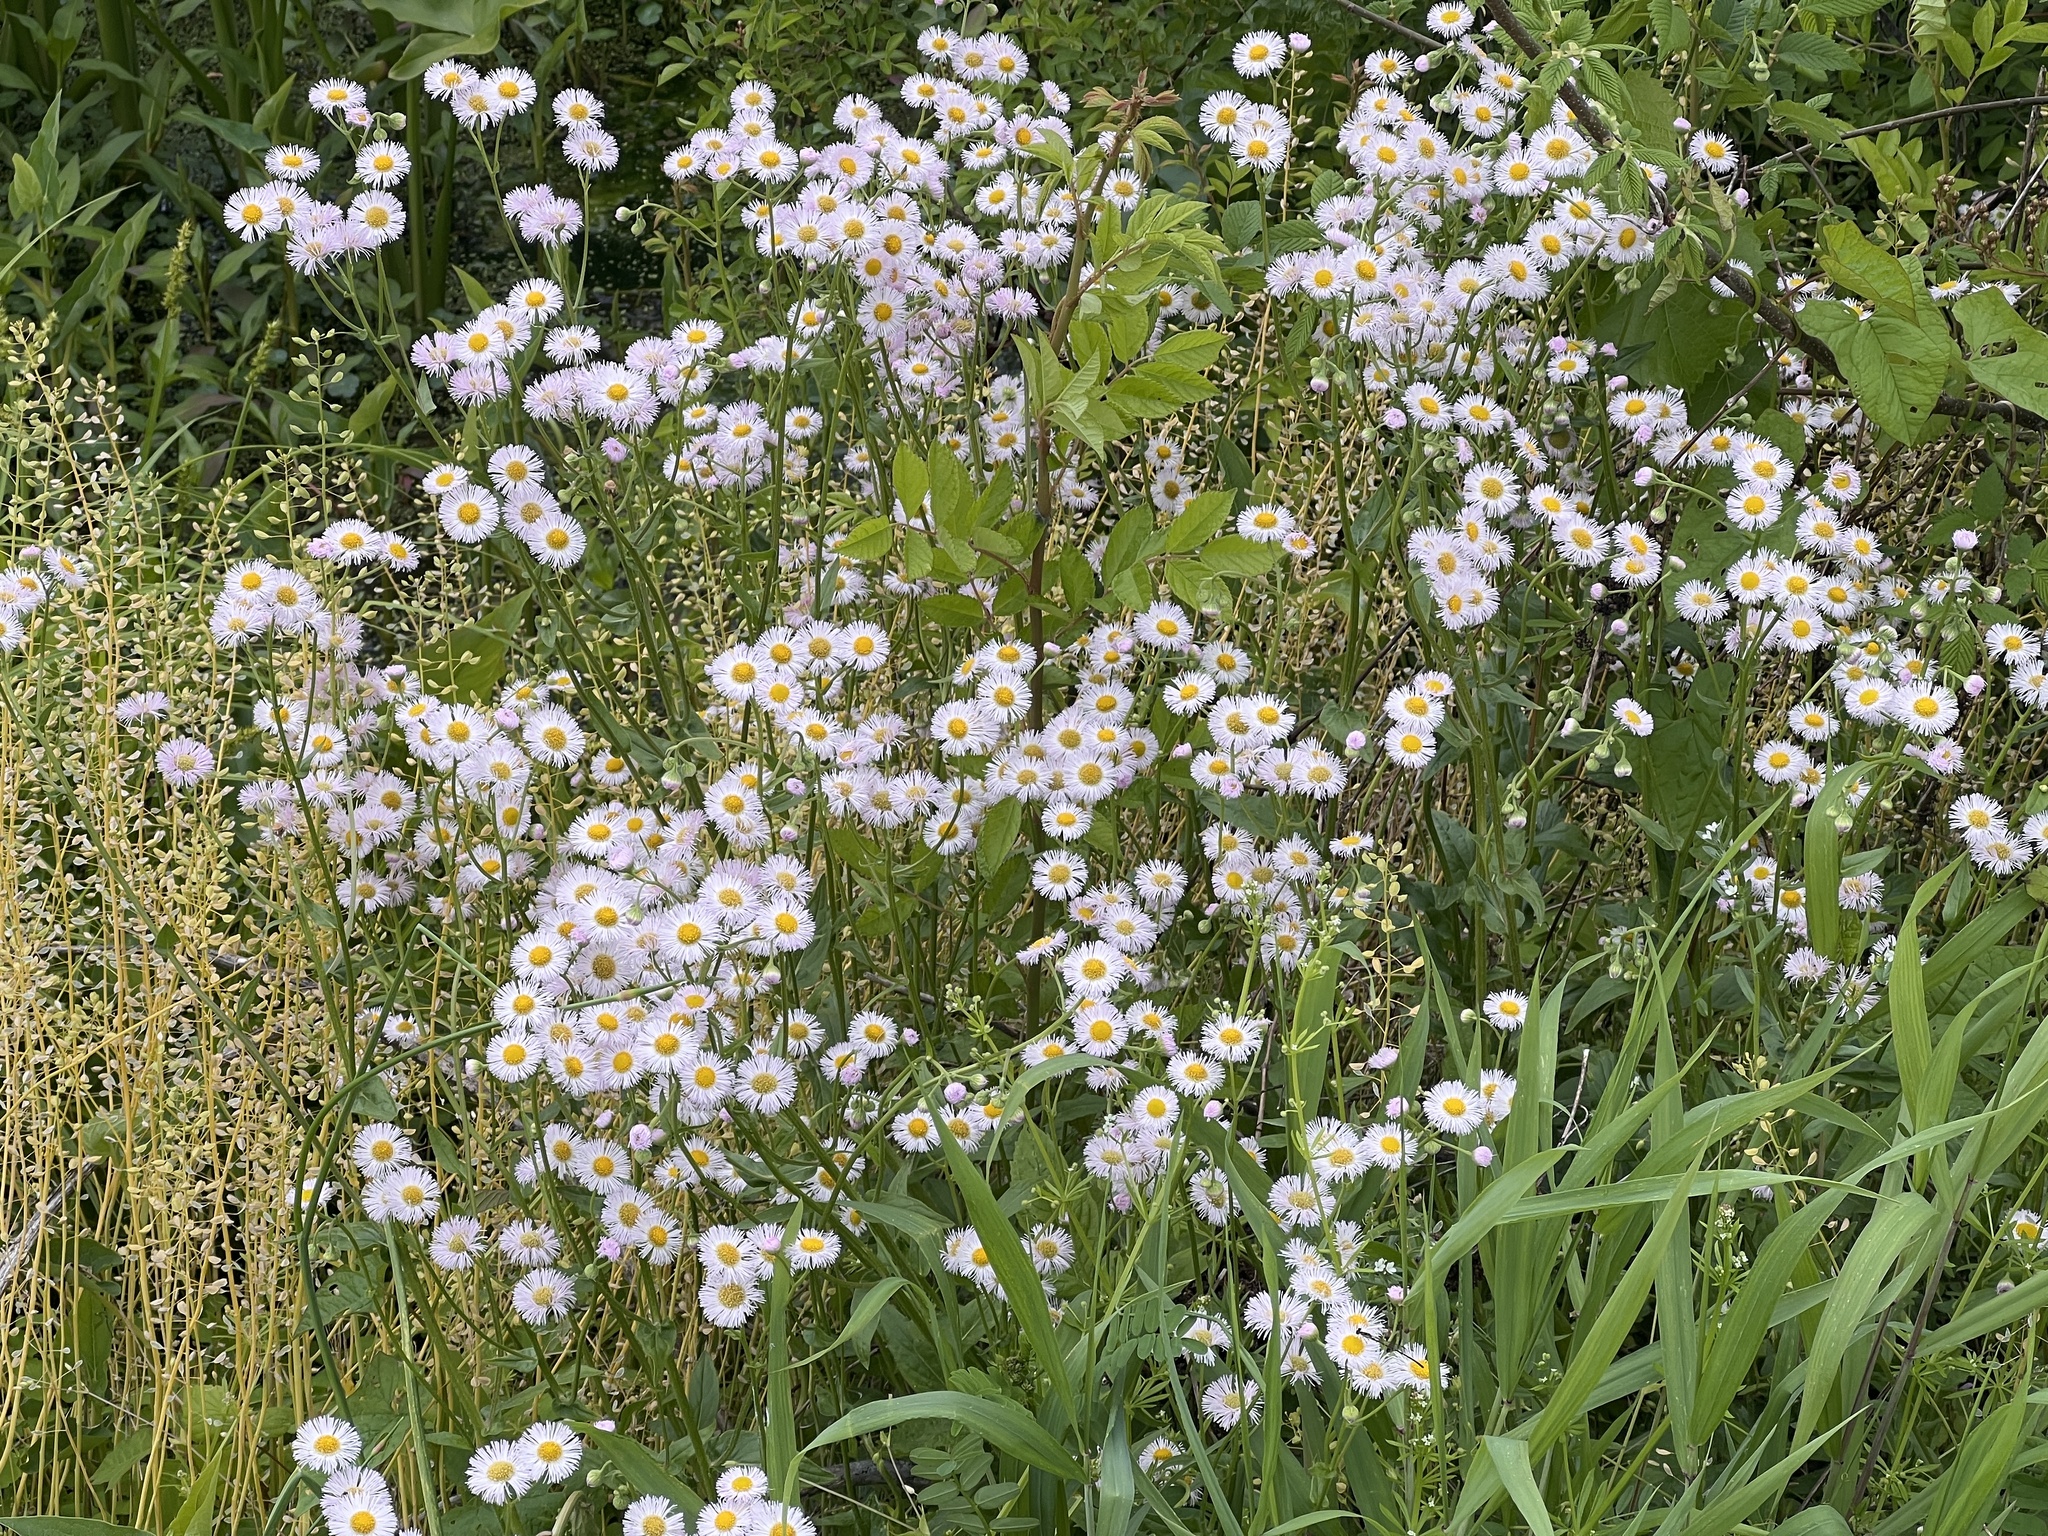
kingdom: Plantae
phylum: Tracheophyta
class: Magnoliopsida
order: Asterales
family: Asteraceae
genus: Erigeron
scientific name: Erigeron philadelphicus
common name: Robin's-plantain
